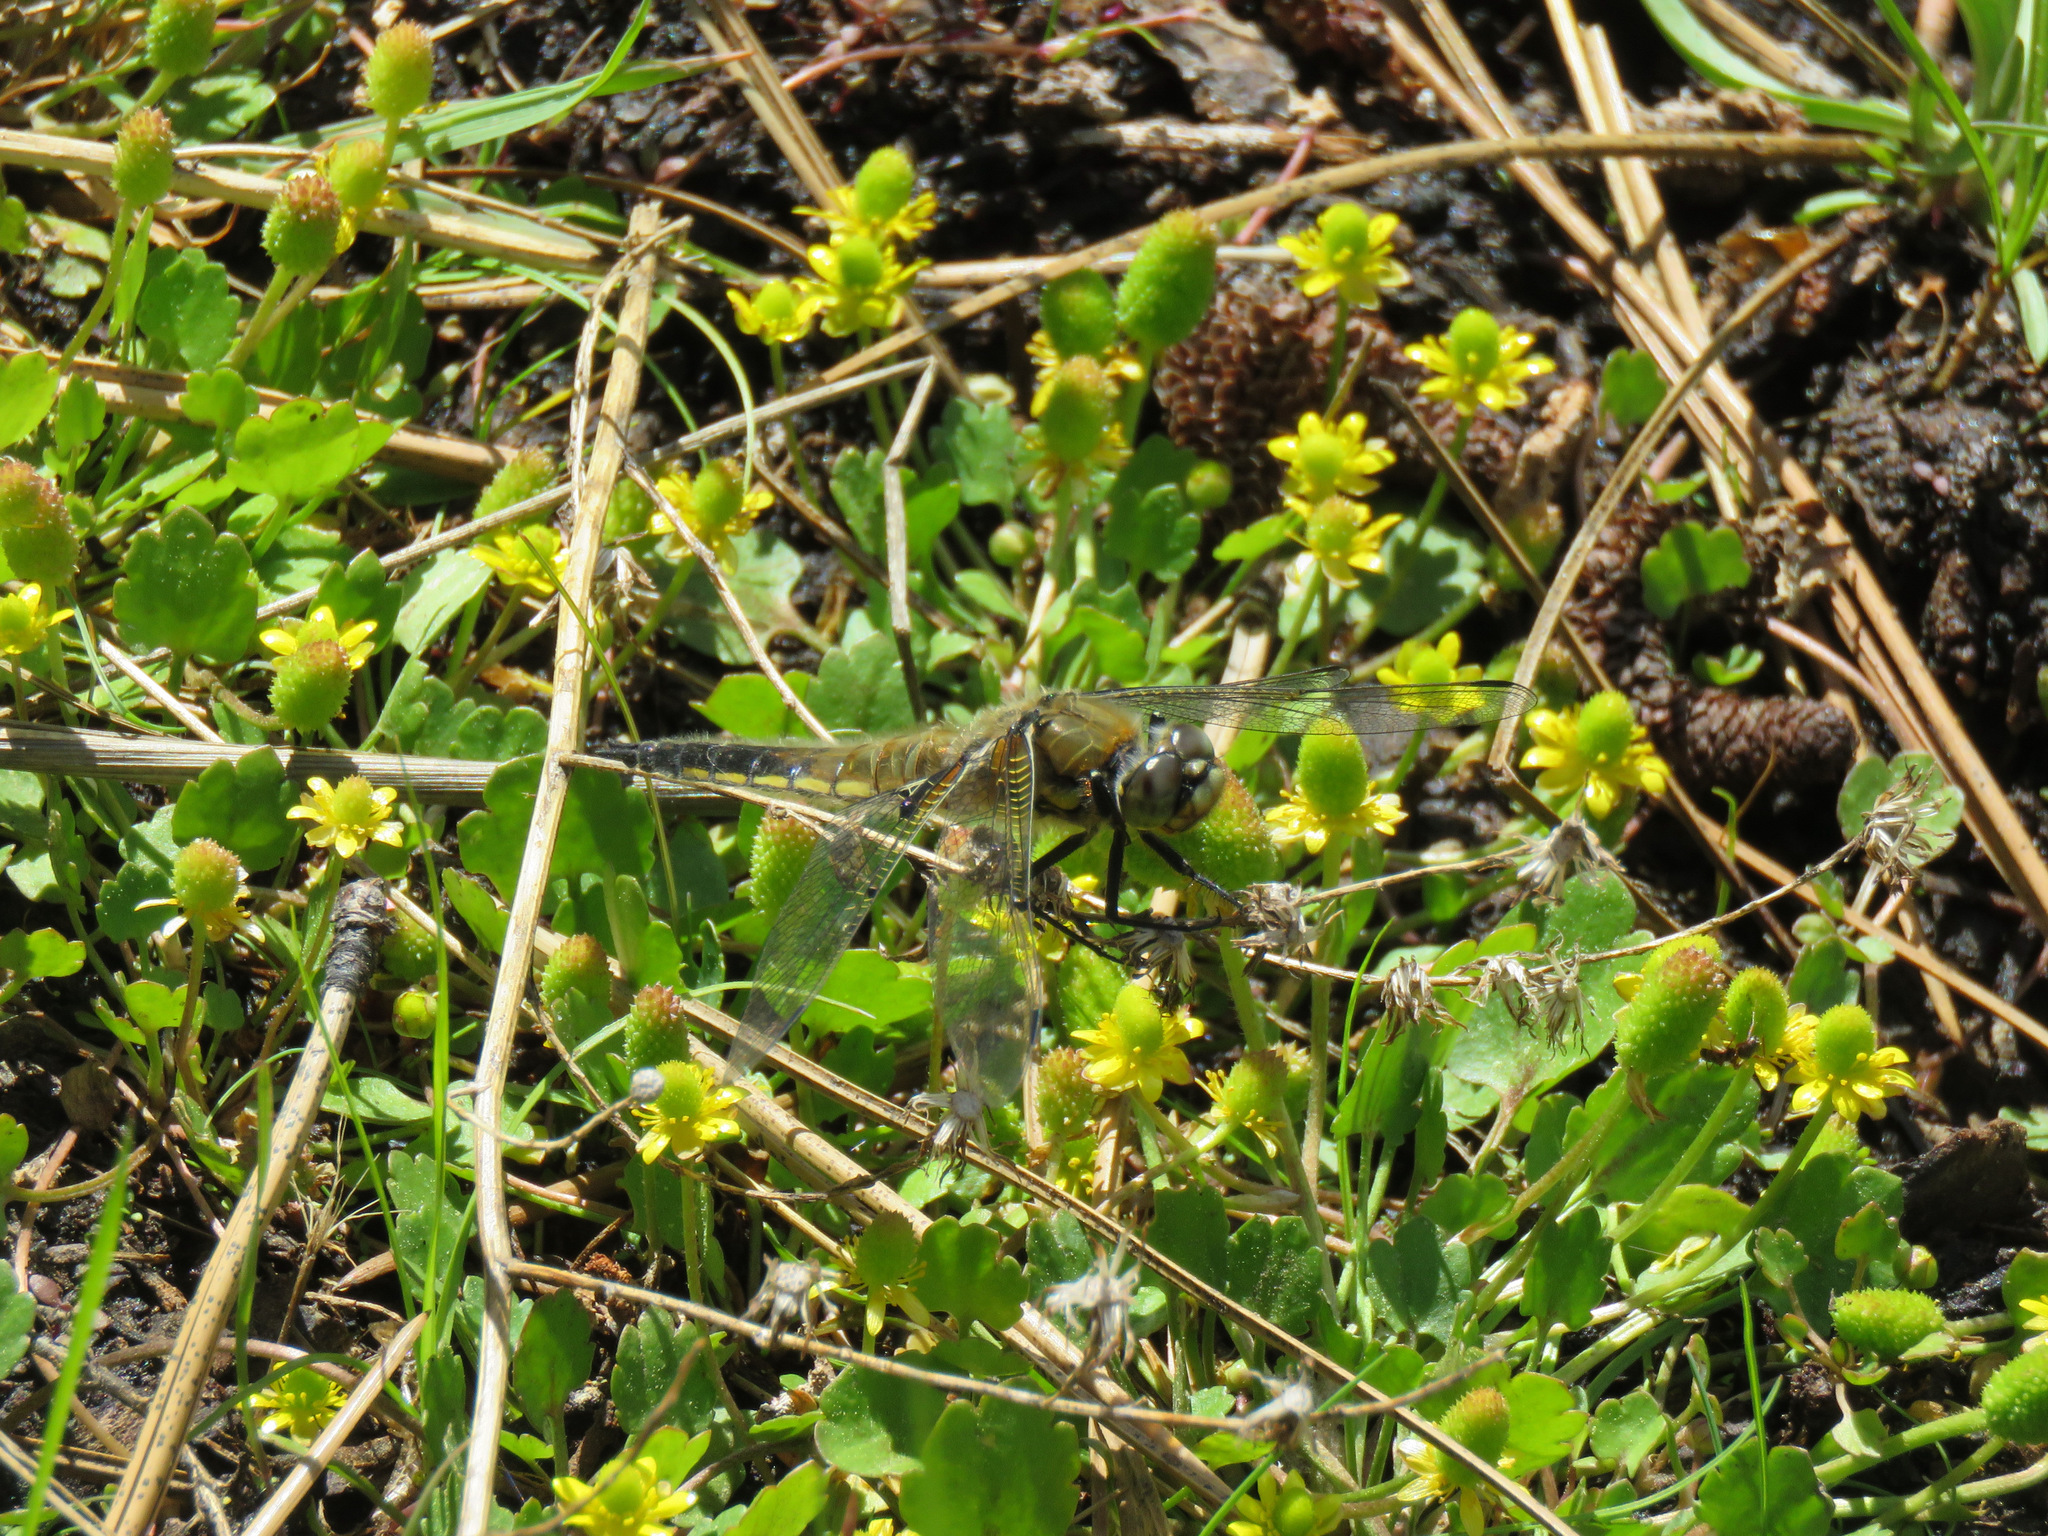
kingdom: Animalia
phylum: Arthropoda
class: Insecta
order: Odonata
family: Libellulidae
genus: Libellula
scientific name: Libellula quadrimaculata
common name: Four-spotted chaser
